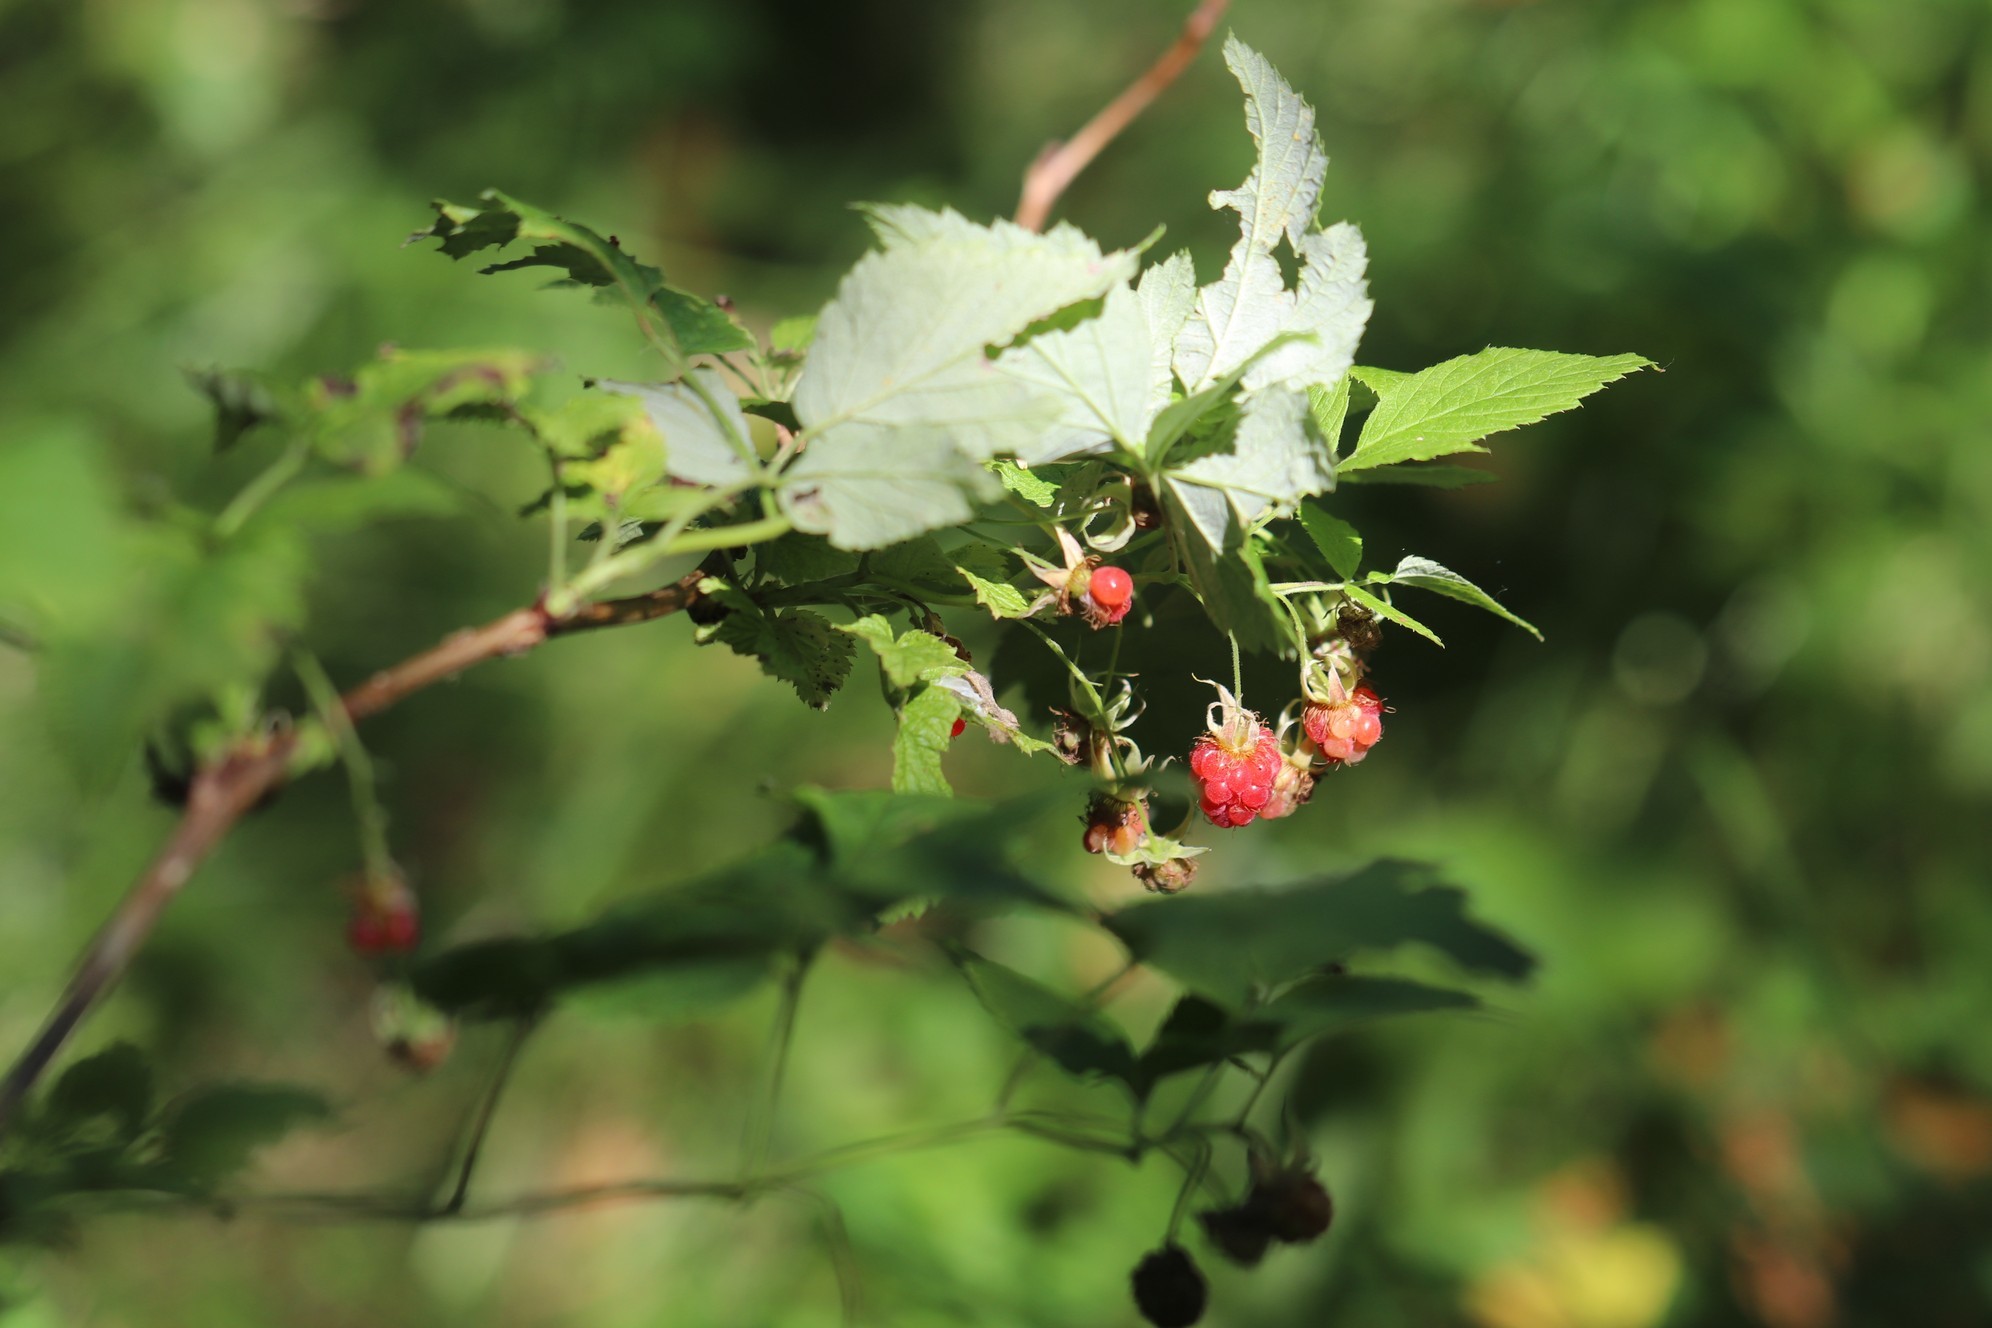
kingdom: Plantae
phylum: Tracheophyta
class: Magnoliopsida
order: Rosales
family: Rosaceae
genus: Rubus
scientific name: Rubus idaeus
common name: Raspberry
